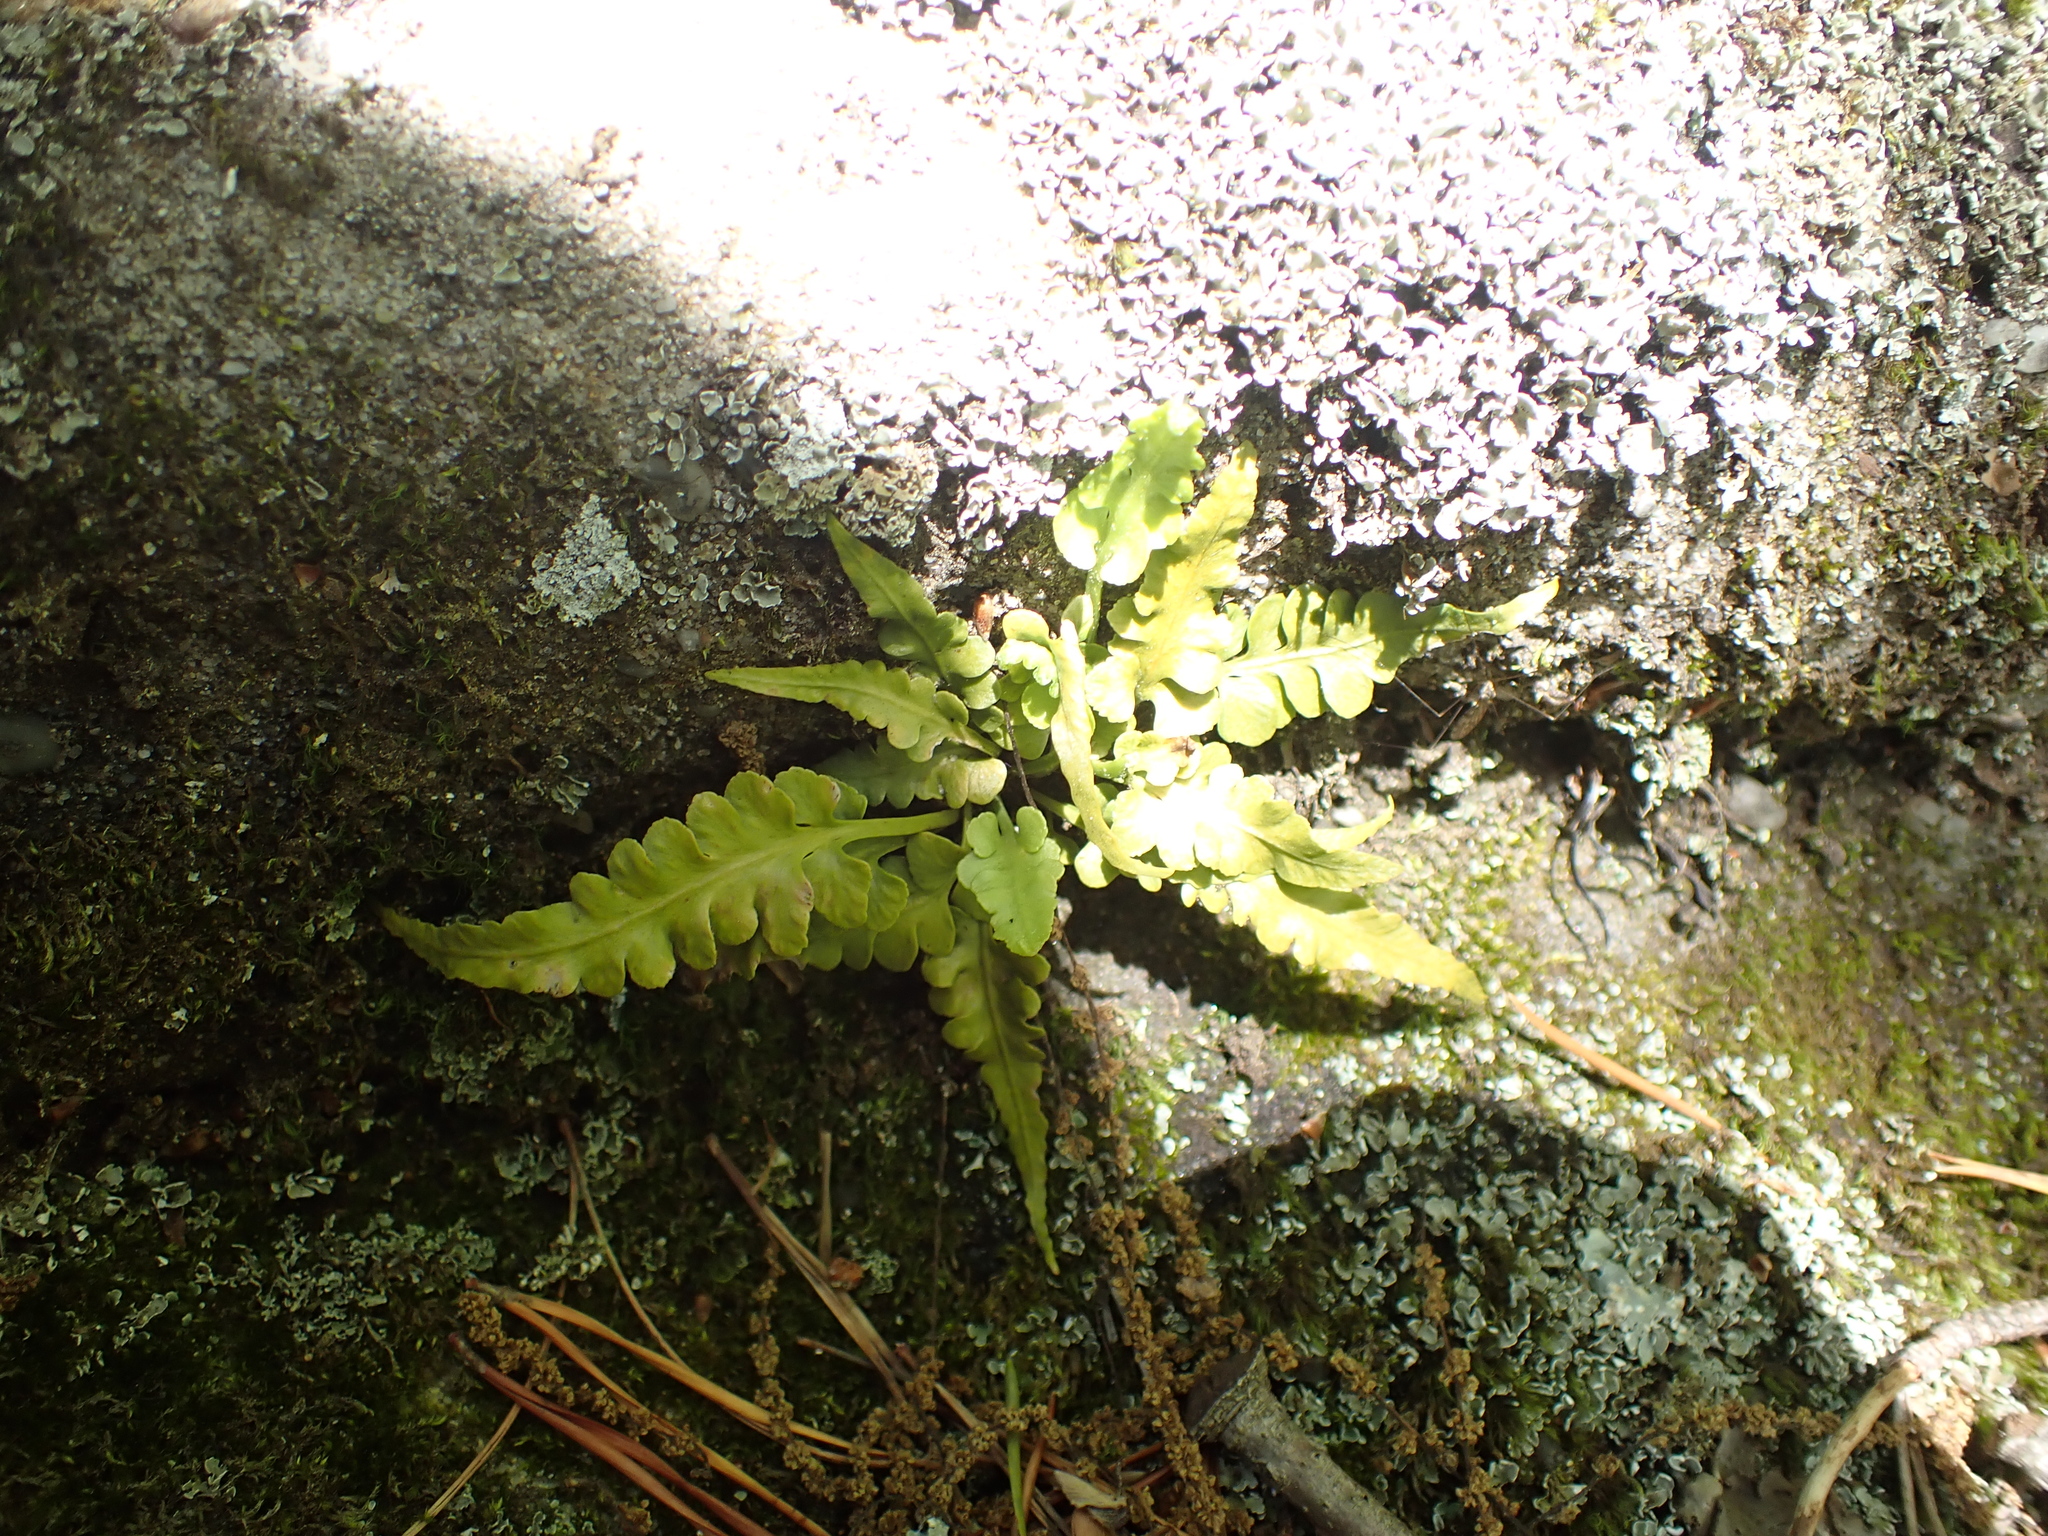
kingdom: Plantae
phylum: Tracheophyta
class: Polypodiopsida
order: Polypodiales
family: Aspleniaceae
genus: Asplenium
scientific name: Asplenium pinnatifidum
